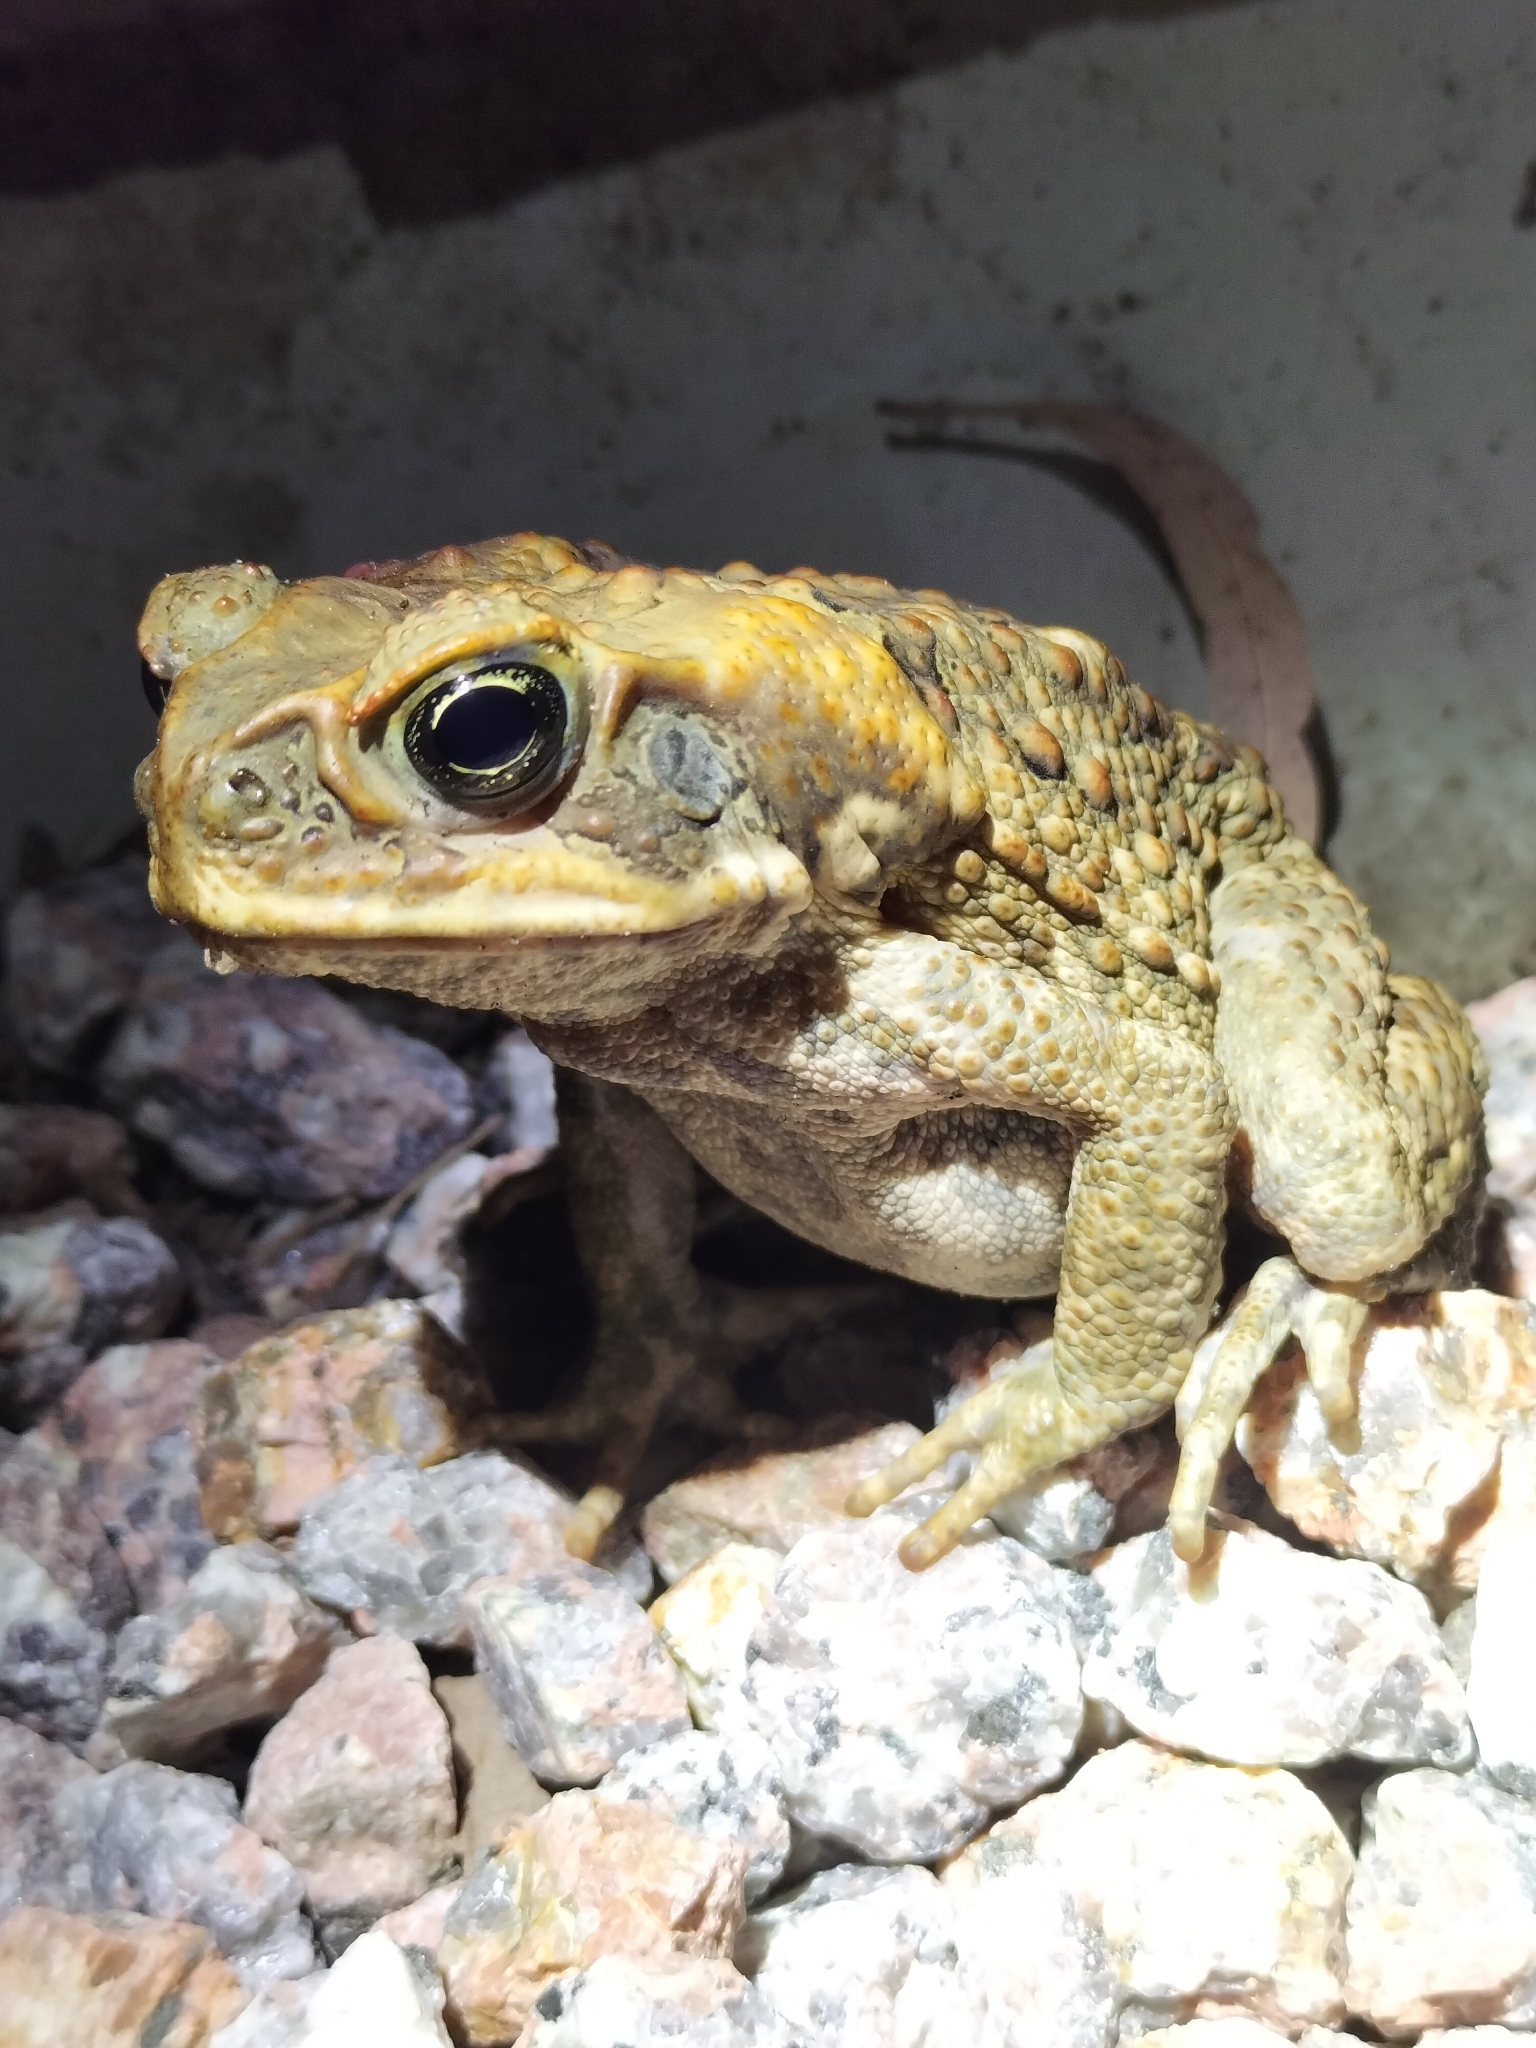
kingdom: Animalia
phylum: Chordata
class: Amphibia
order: Anura
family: Bufonidae
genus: Rhinella
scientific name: Rhinella marina
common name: Cane toad
